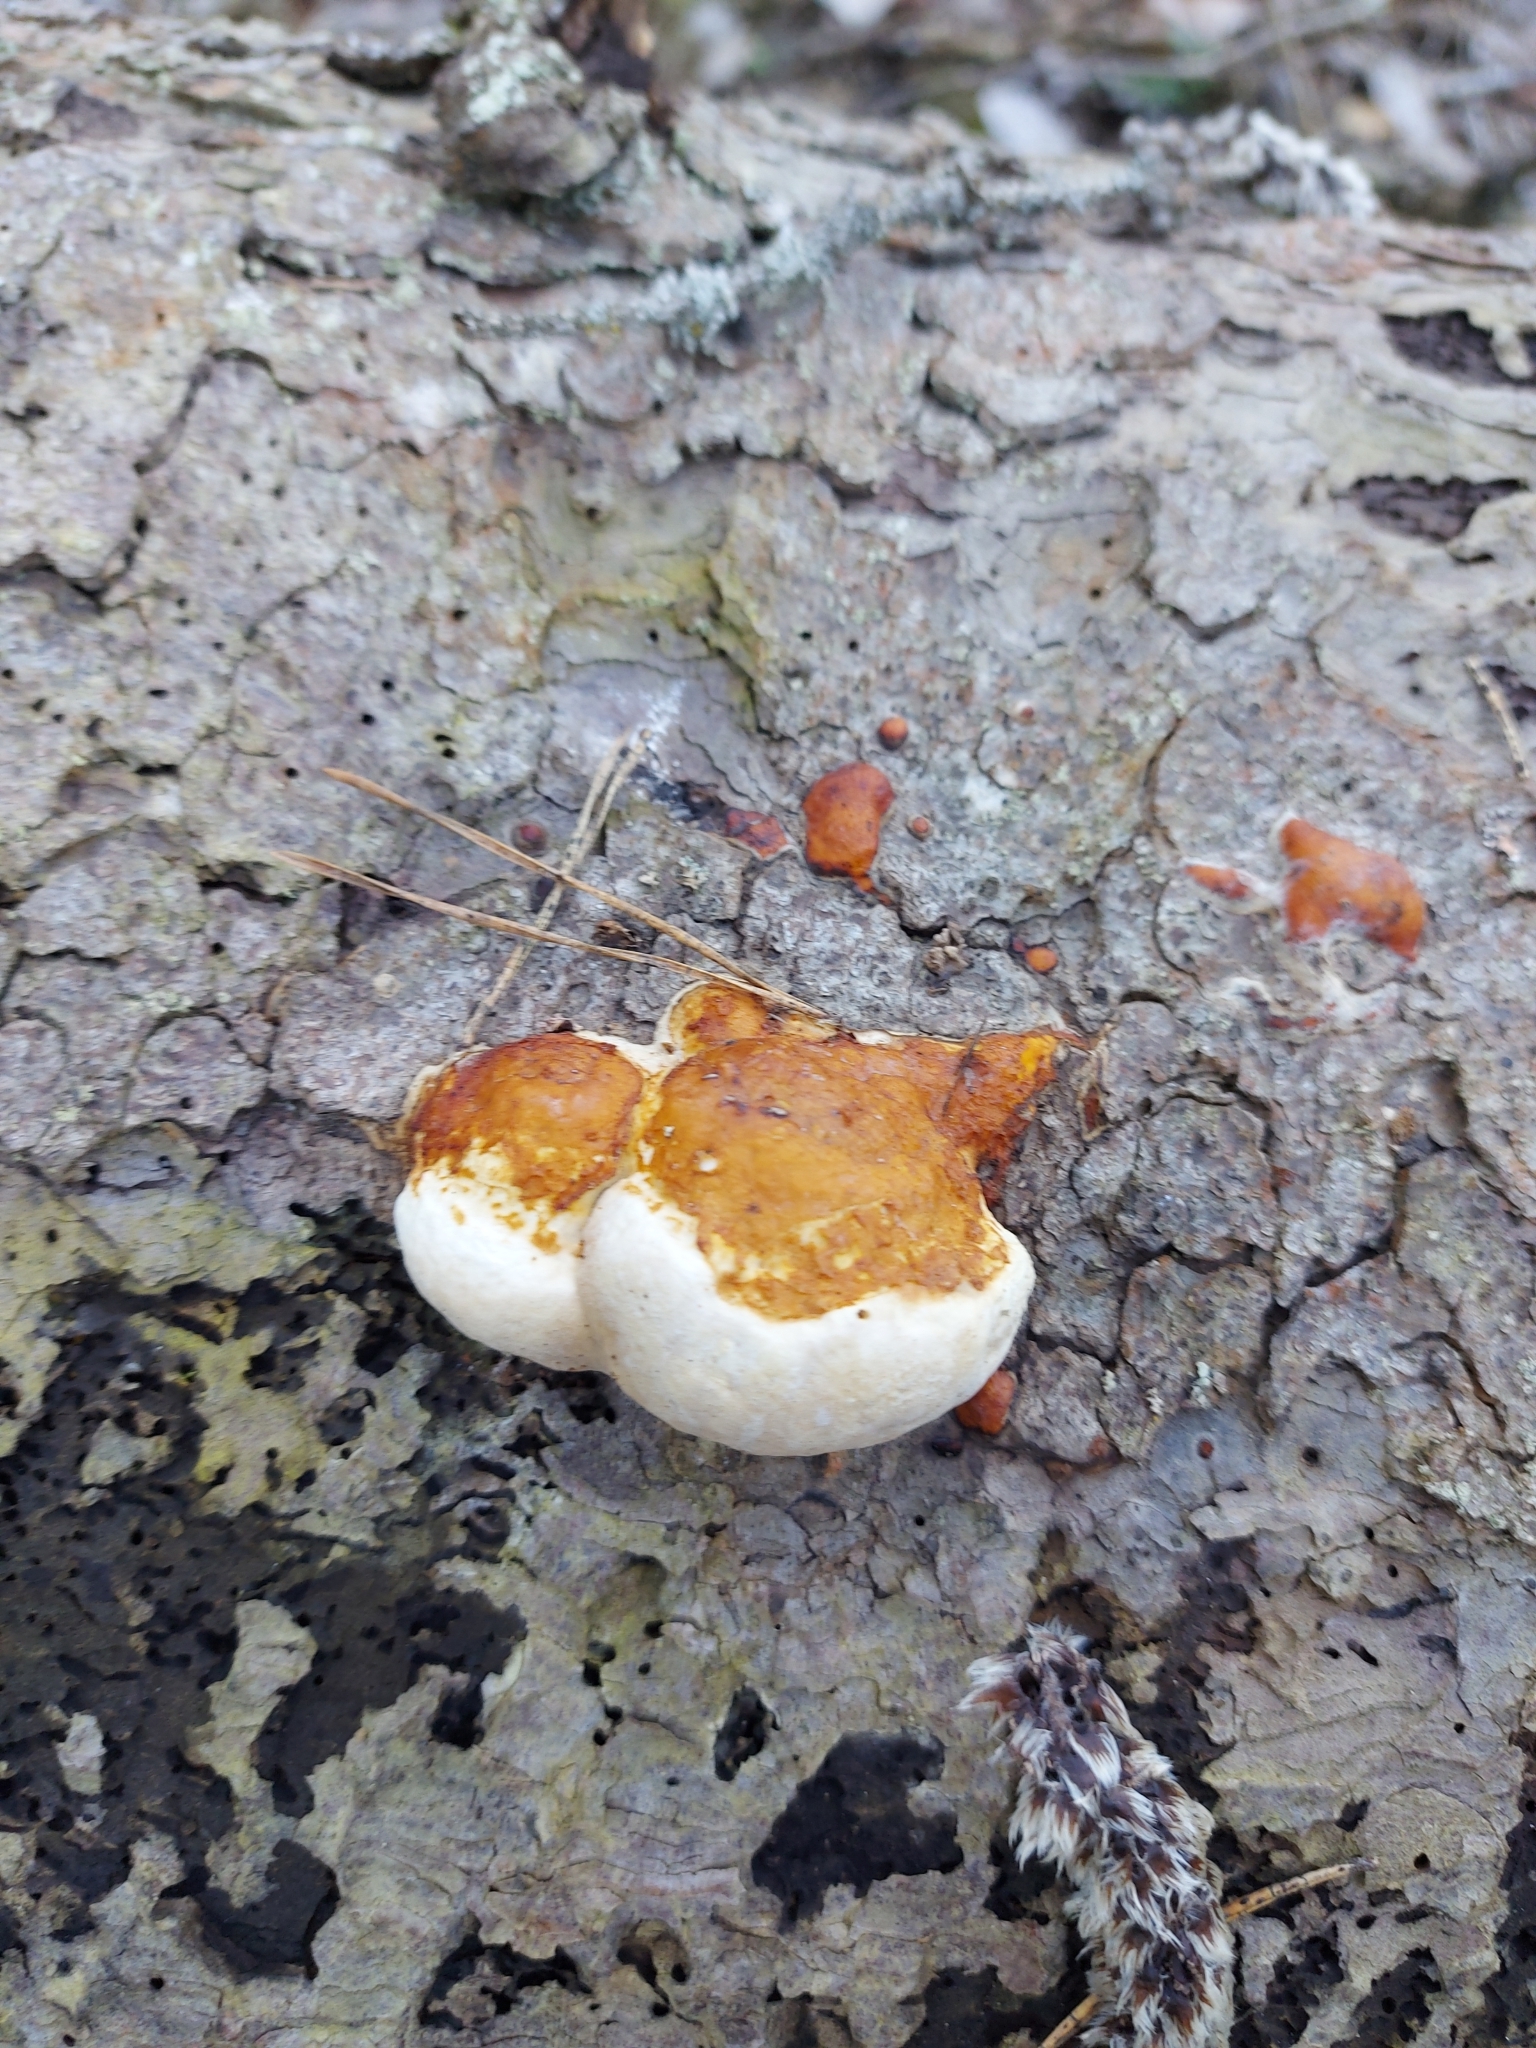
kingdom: Fungi
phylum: Basidiomycota
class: Agaricomycetes
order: Polyporales
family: Fomitopsidaceae
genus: Fomitopsis
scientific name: Fomitopsis pinicola
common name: Red-belted bracket
